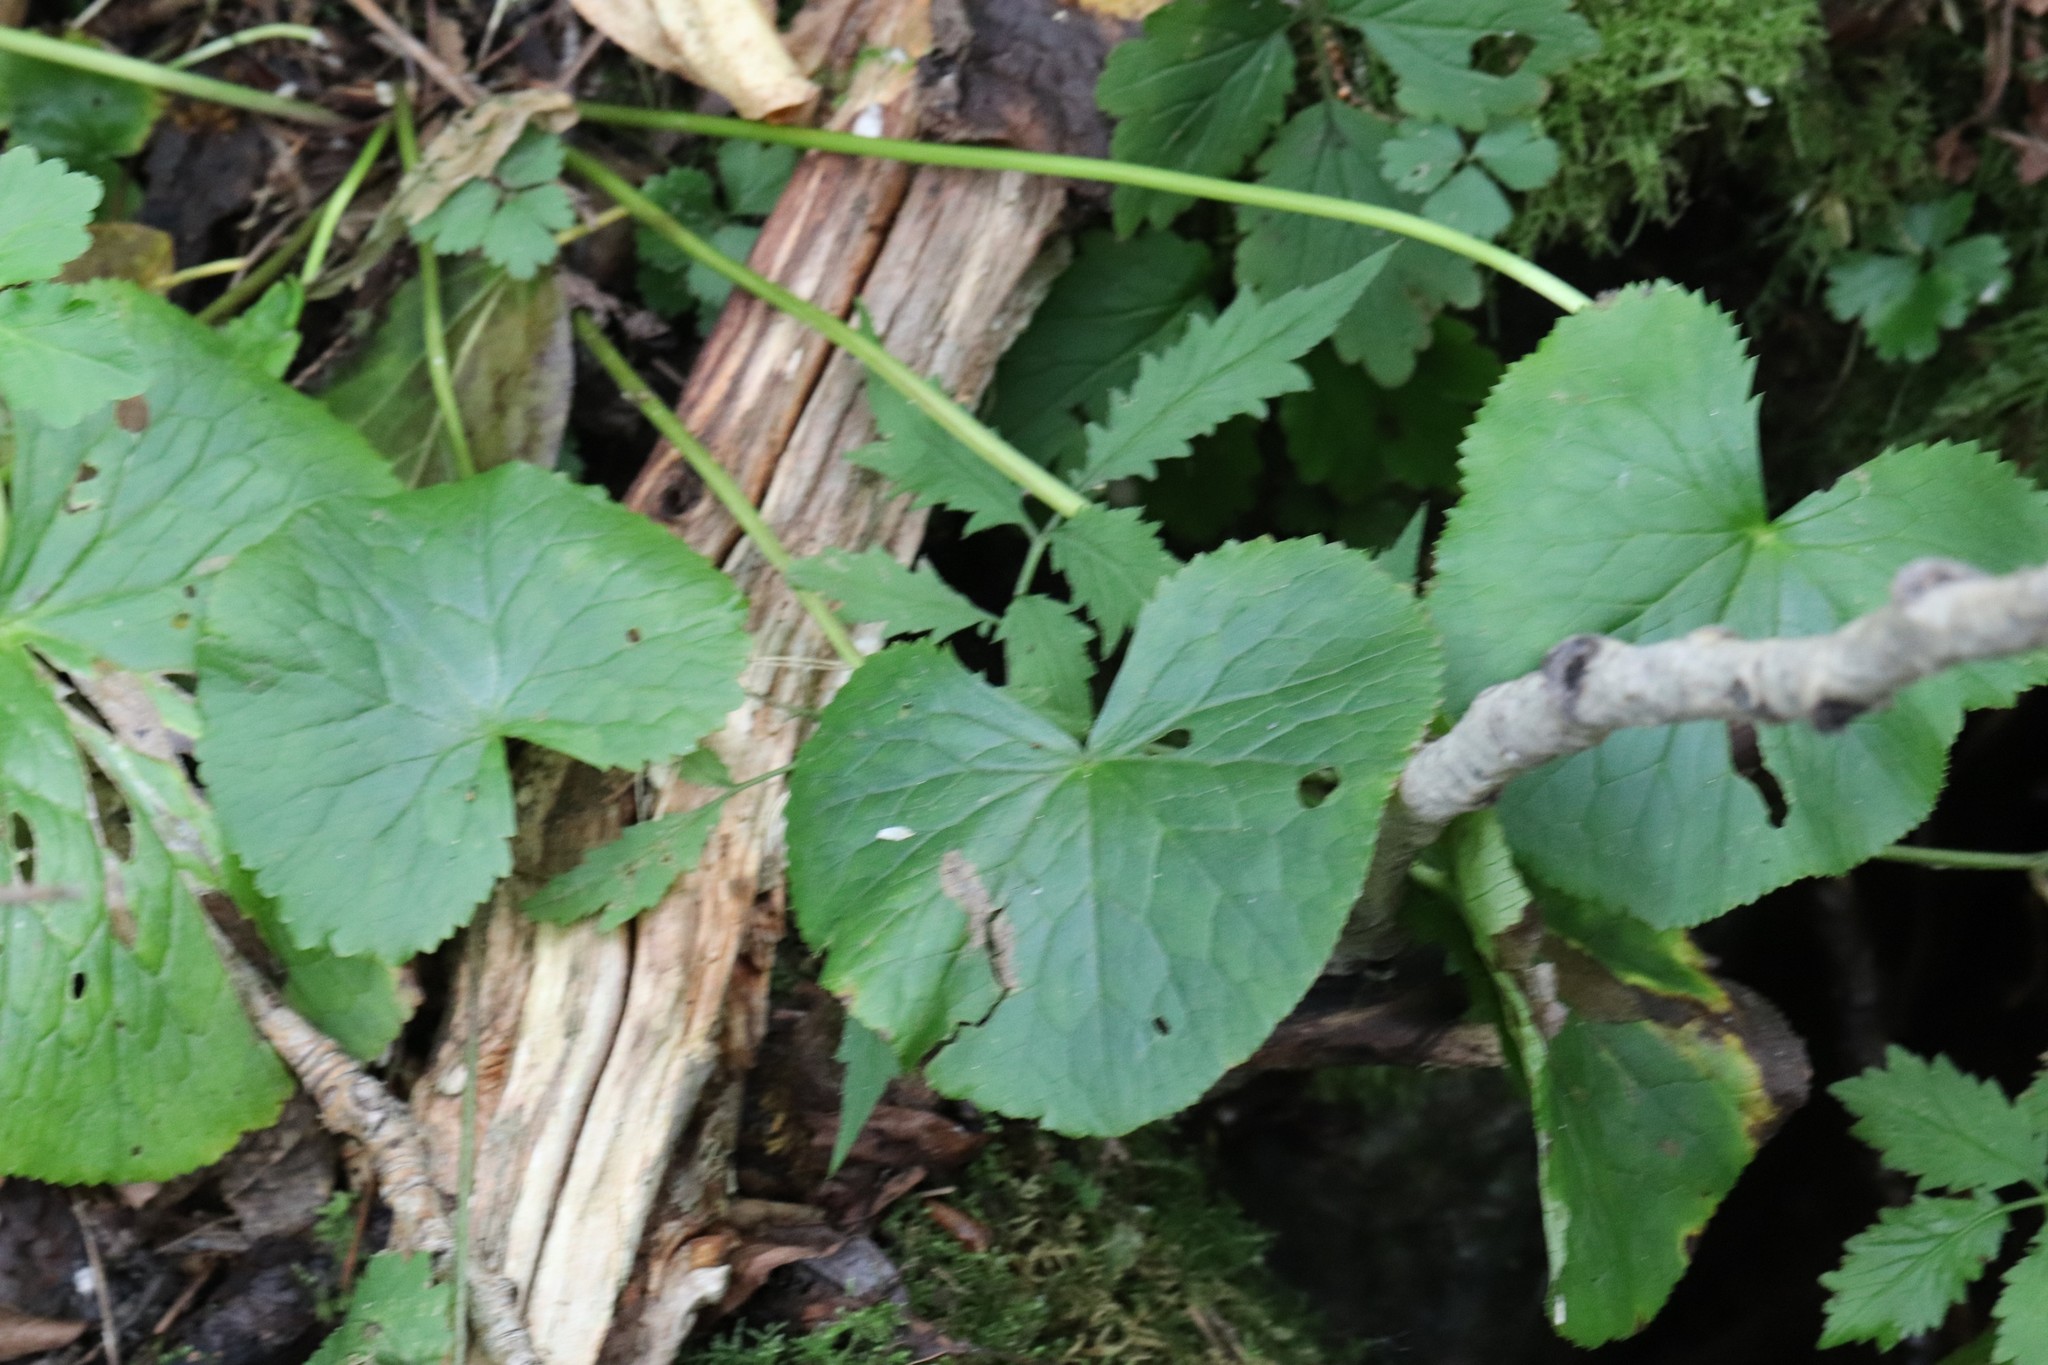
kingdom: Plantae
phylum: Tracheophyta
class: Magnoliopsida
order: Ranunculales
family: Ranunculaceae
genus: Caltha
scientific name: Caltha palustris
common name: Marsh marigold
